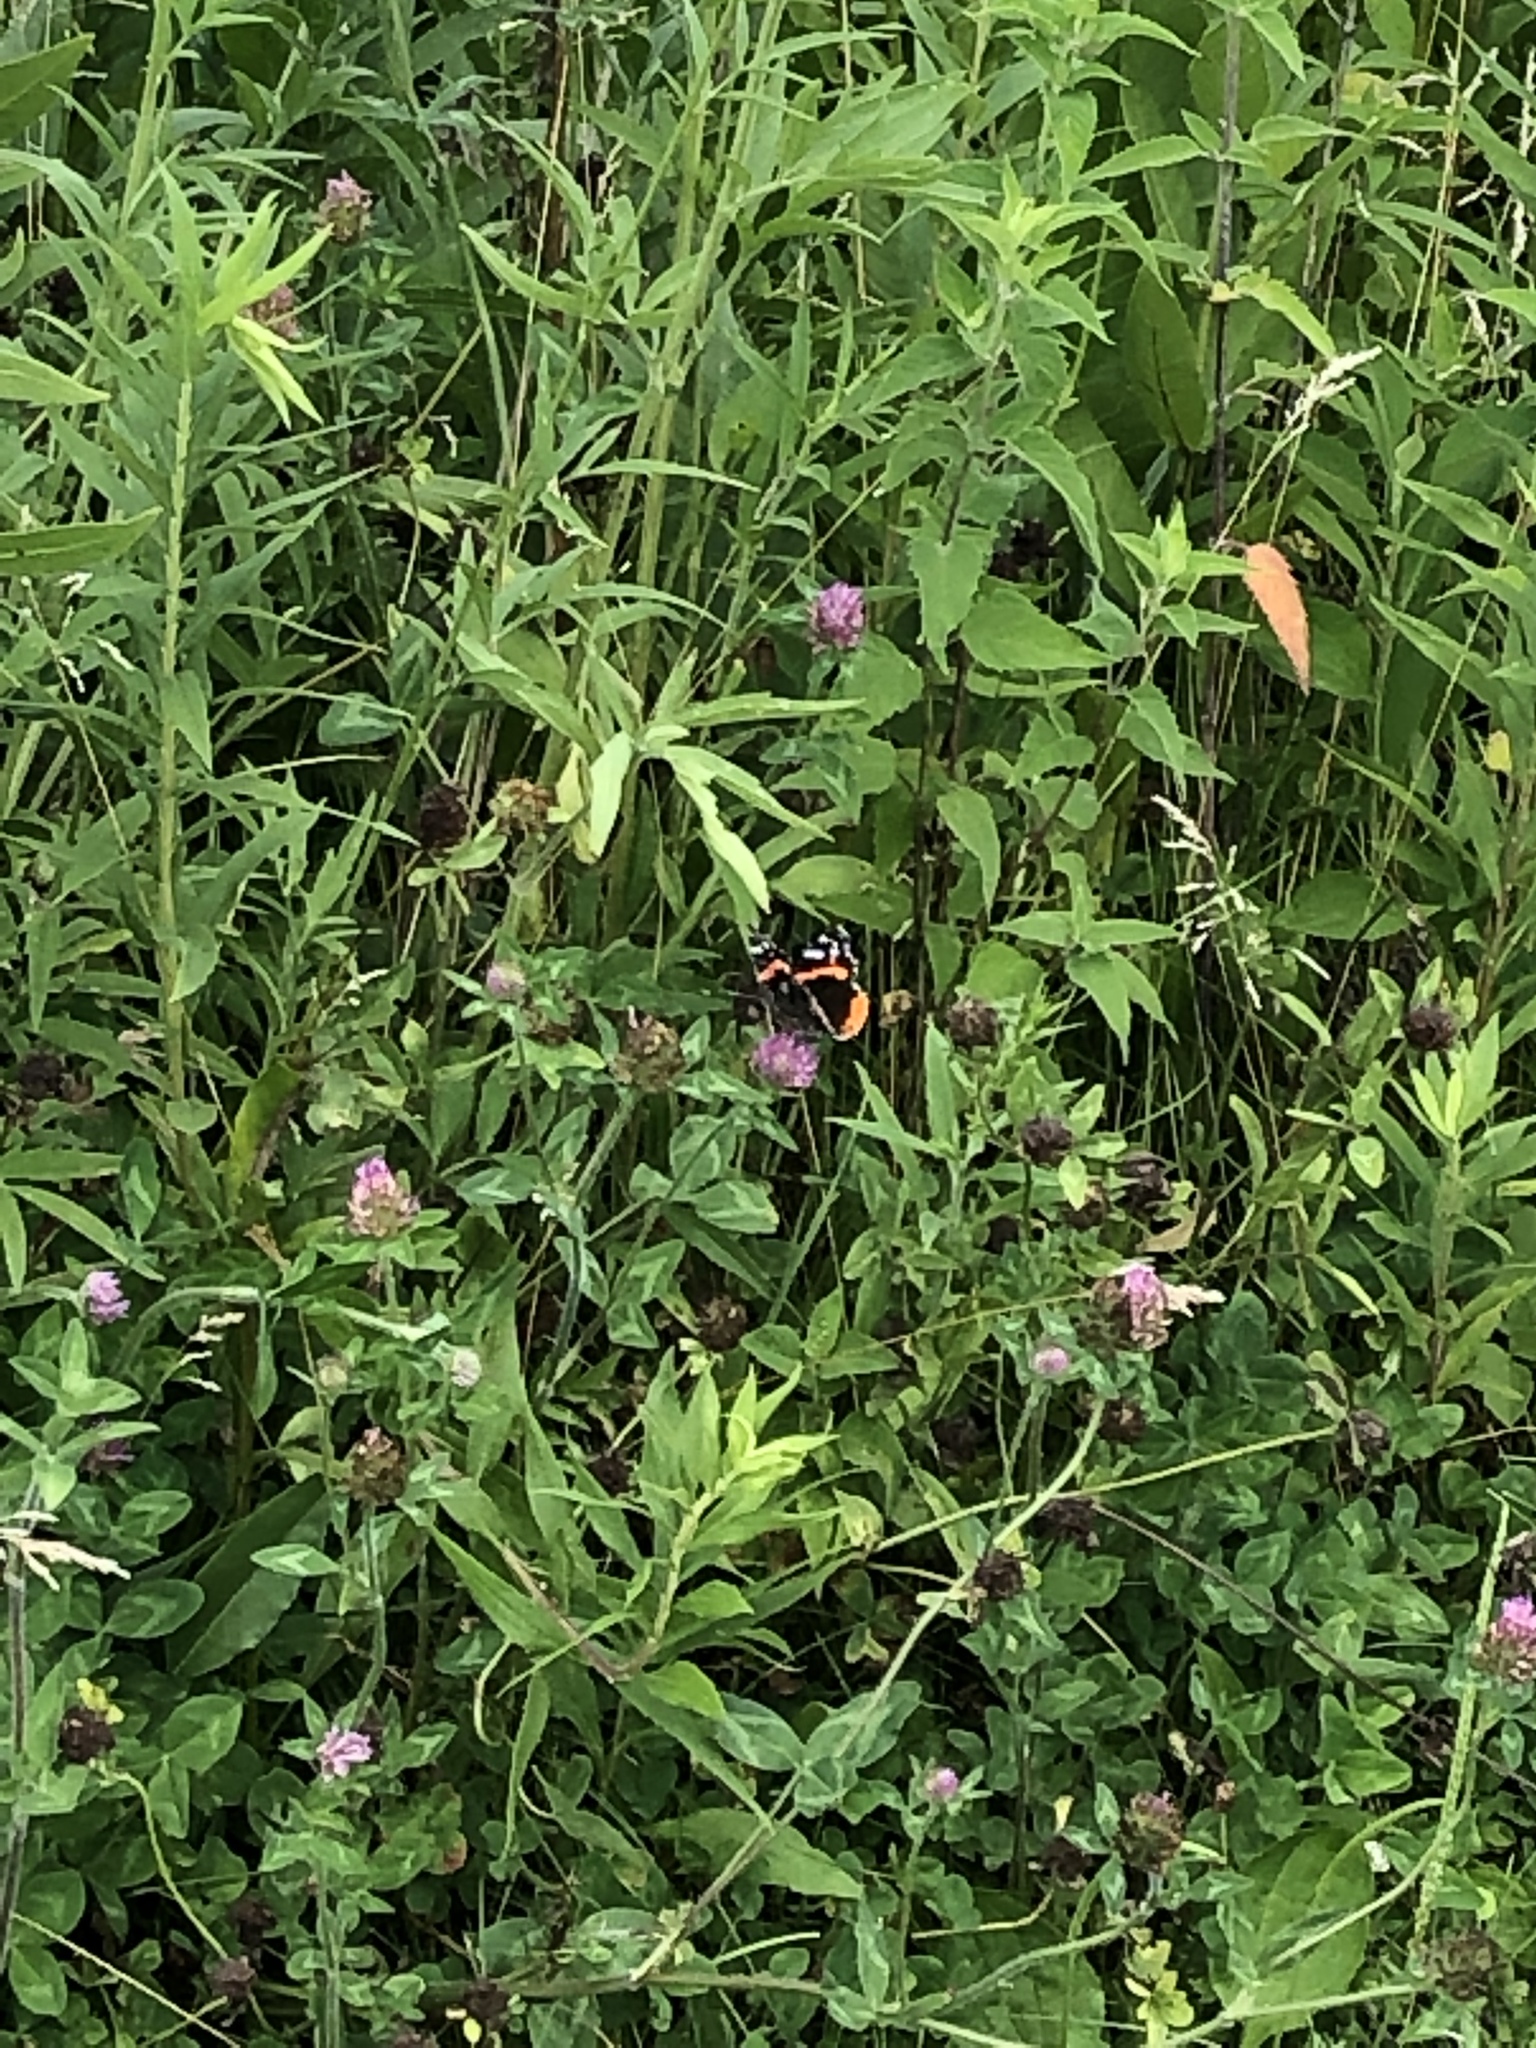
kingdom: Animalia
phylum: Arthropoda
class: Insecta
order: Lepidoptera
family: Nymphalidae
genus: Vanessa
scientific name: Vanessa atalanta
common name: Red admiral
